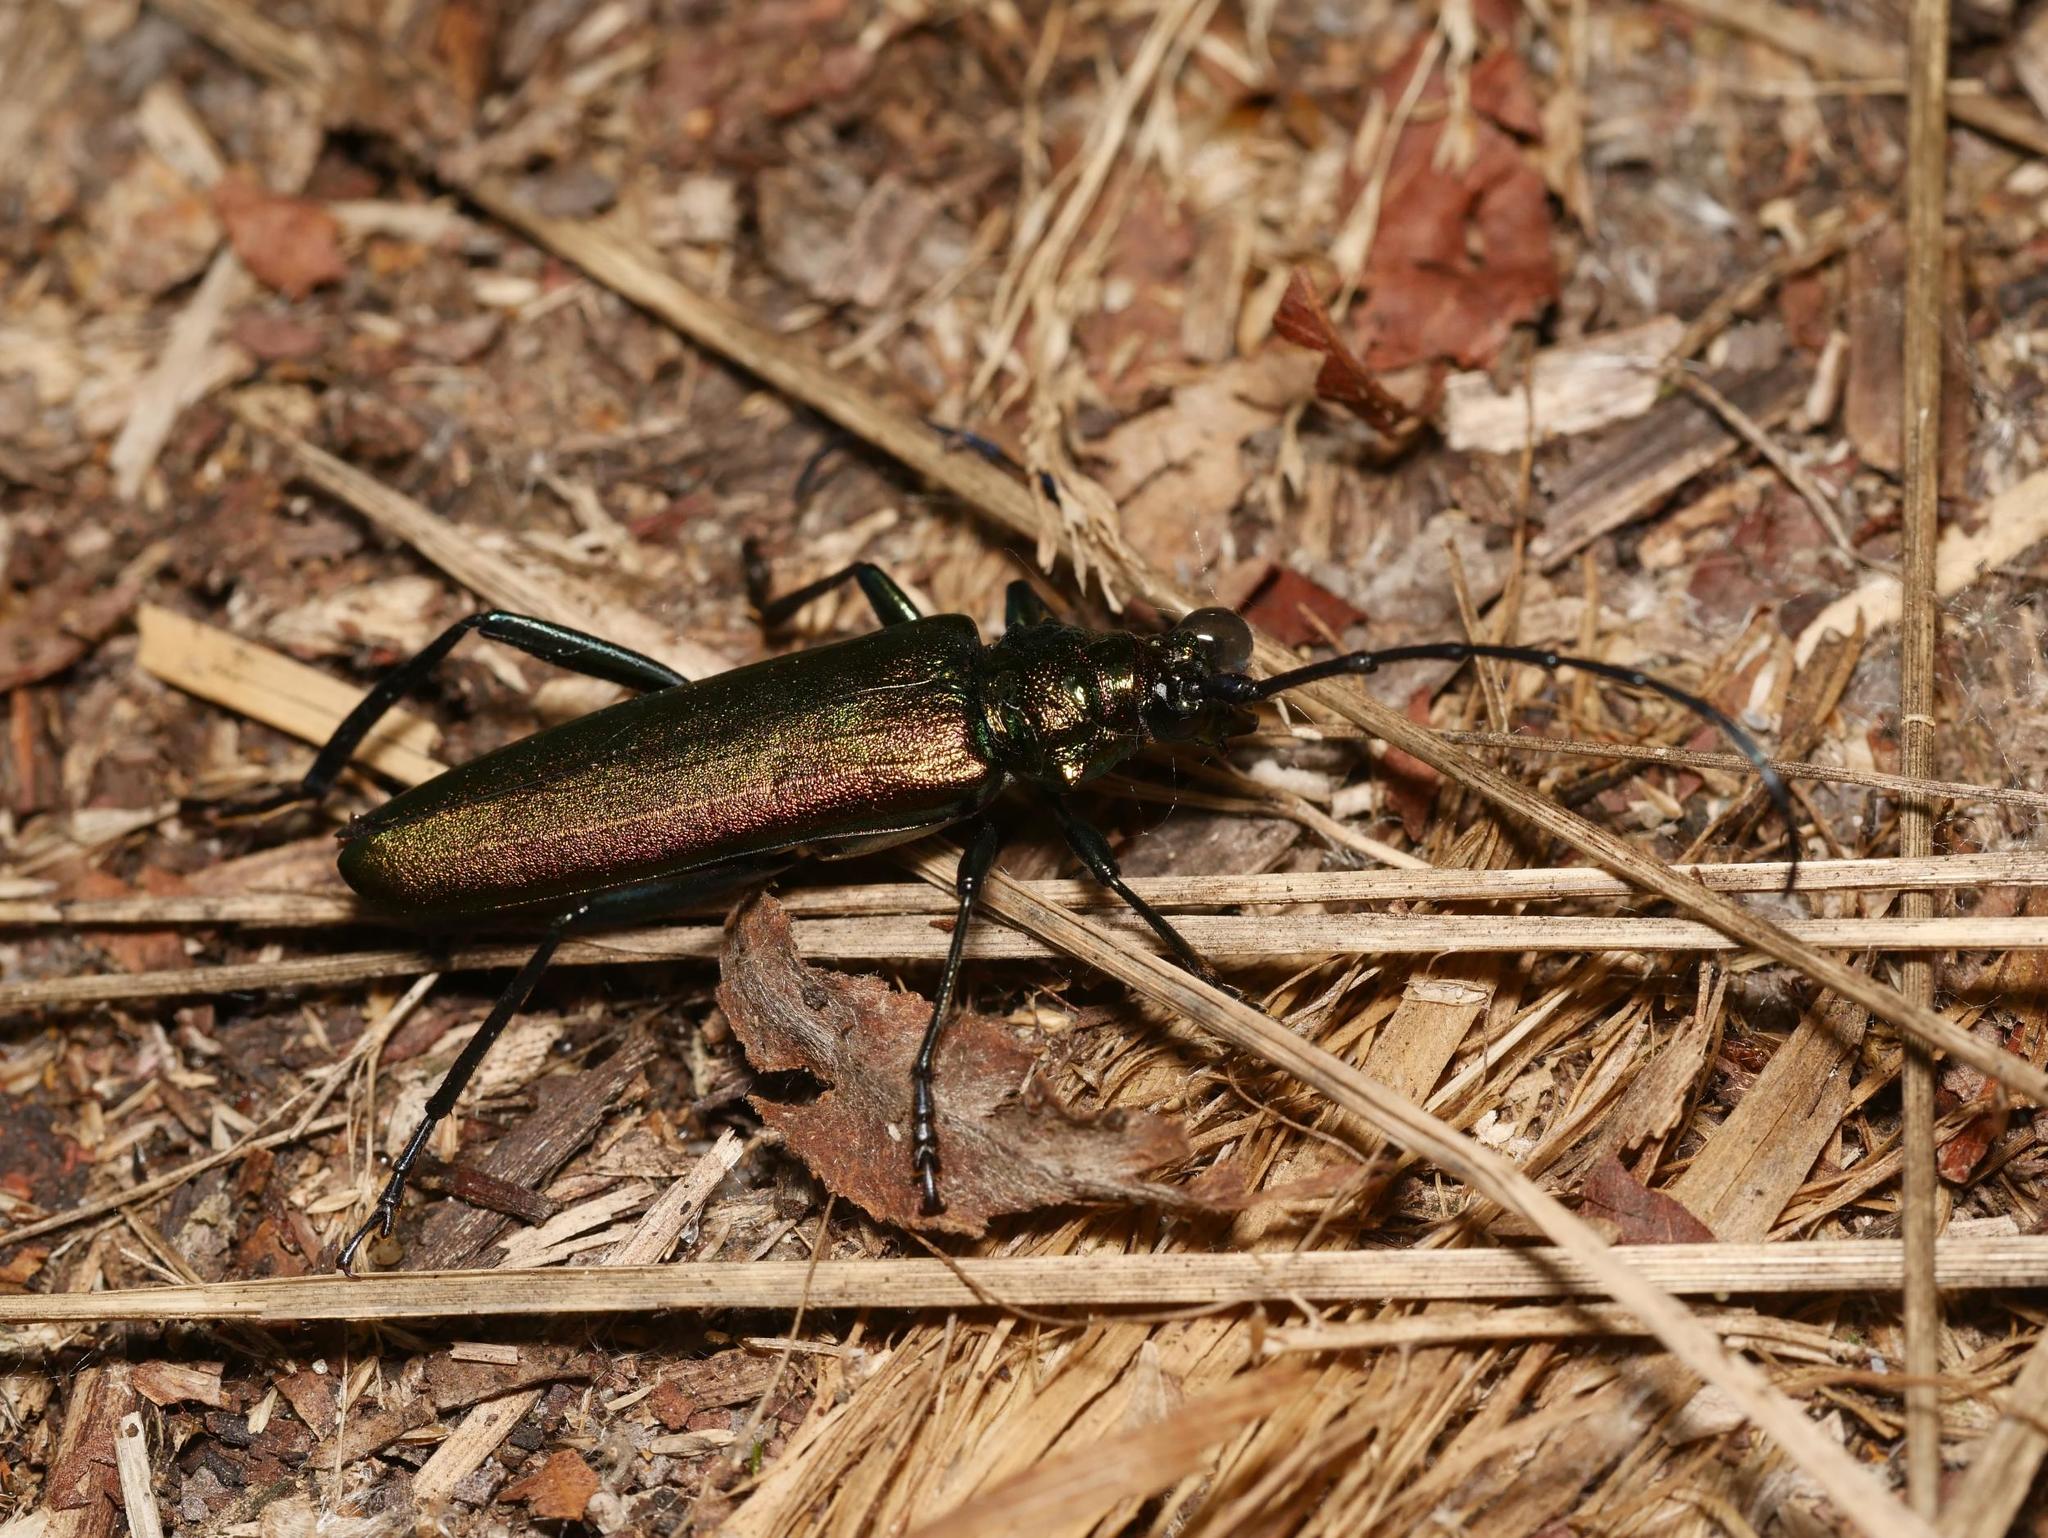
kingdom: Animalia
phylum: Arthropoda
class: Insecta
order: Coleoptera
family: Cerambycidae
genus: Aromia
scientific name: Aromia moschata
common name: Musk beetle
